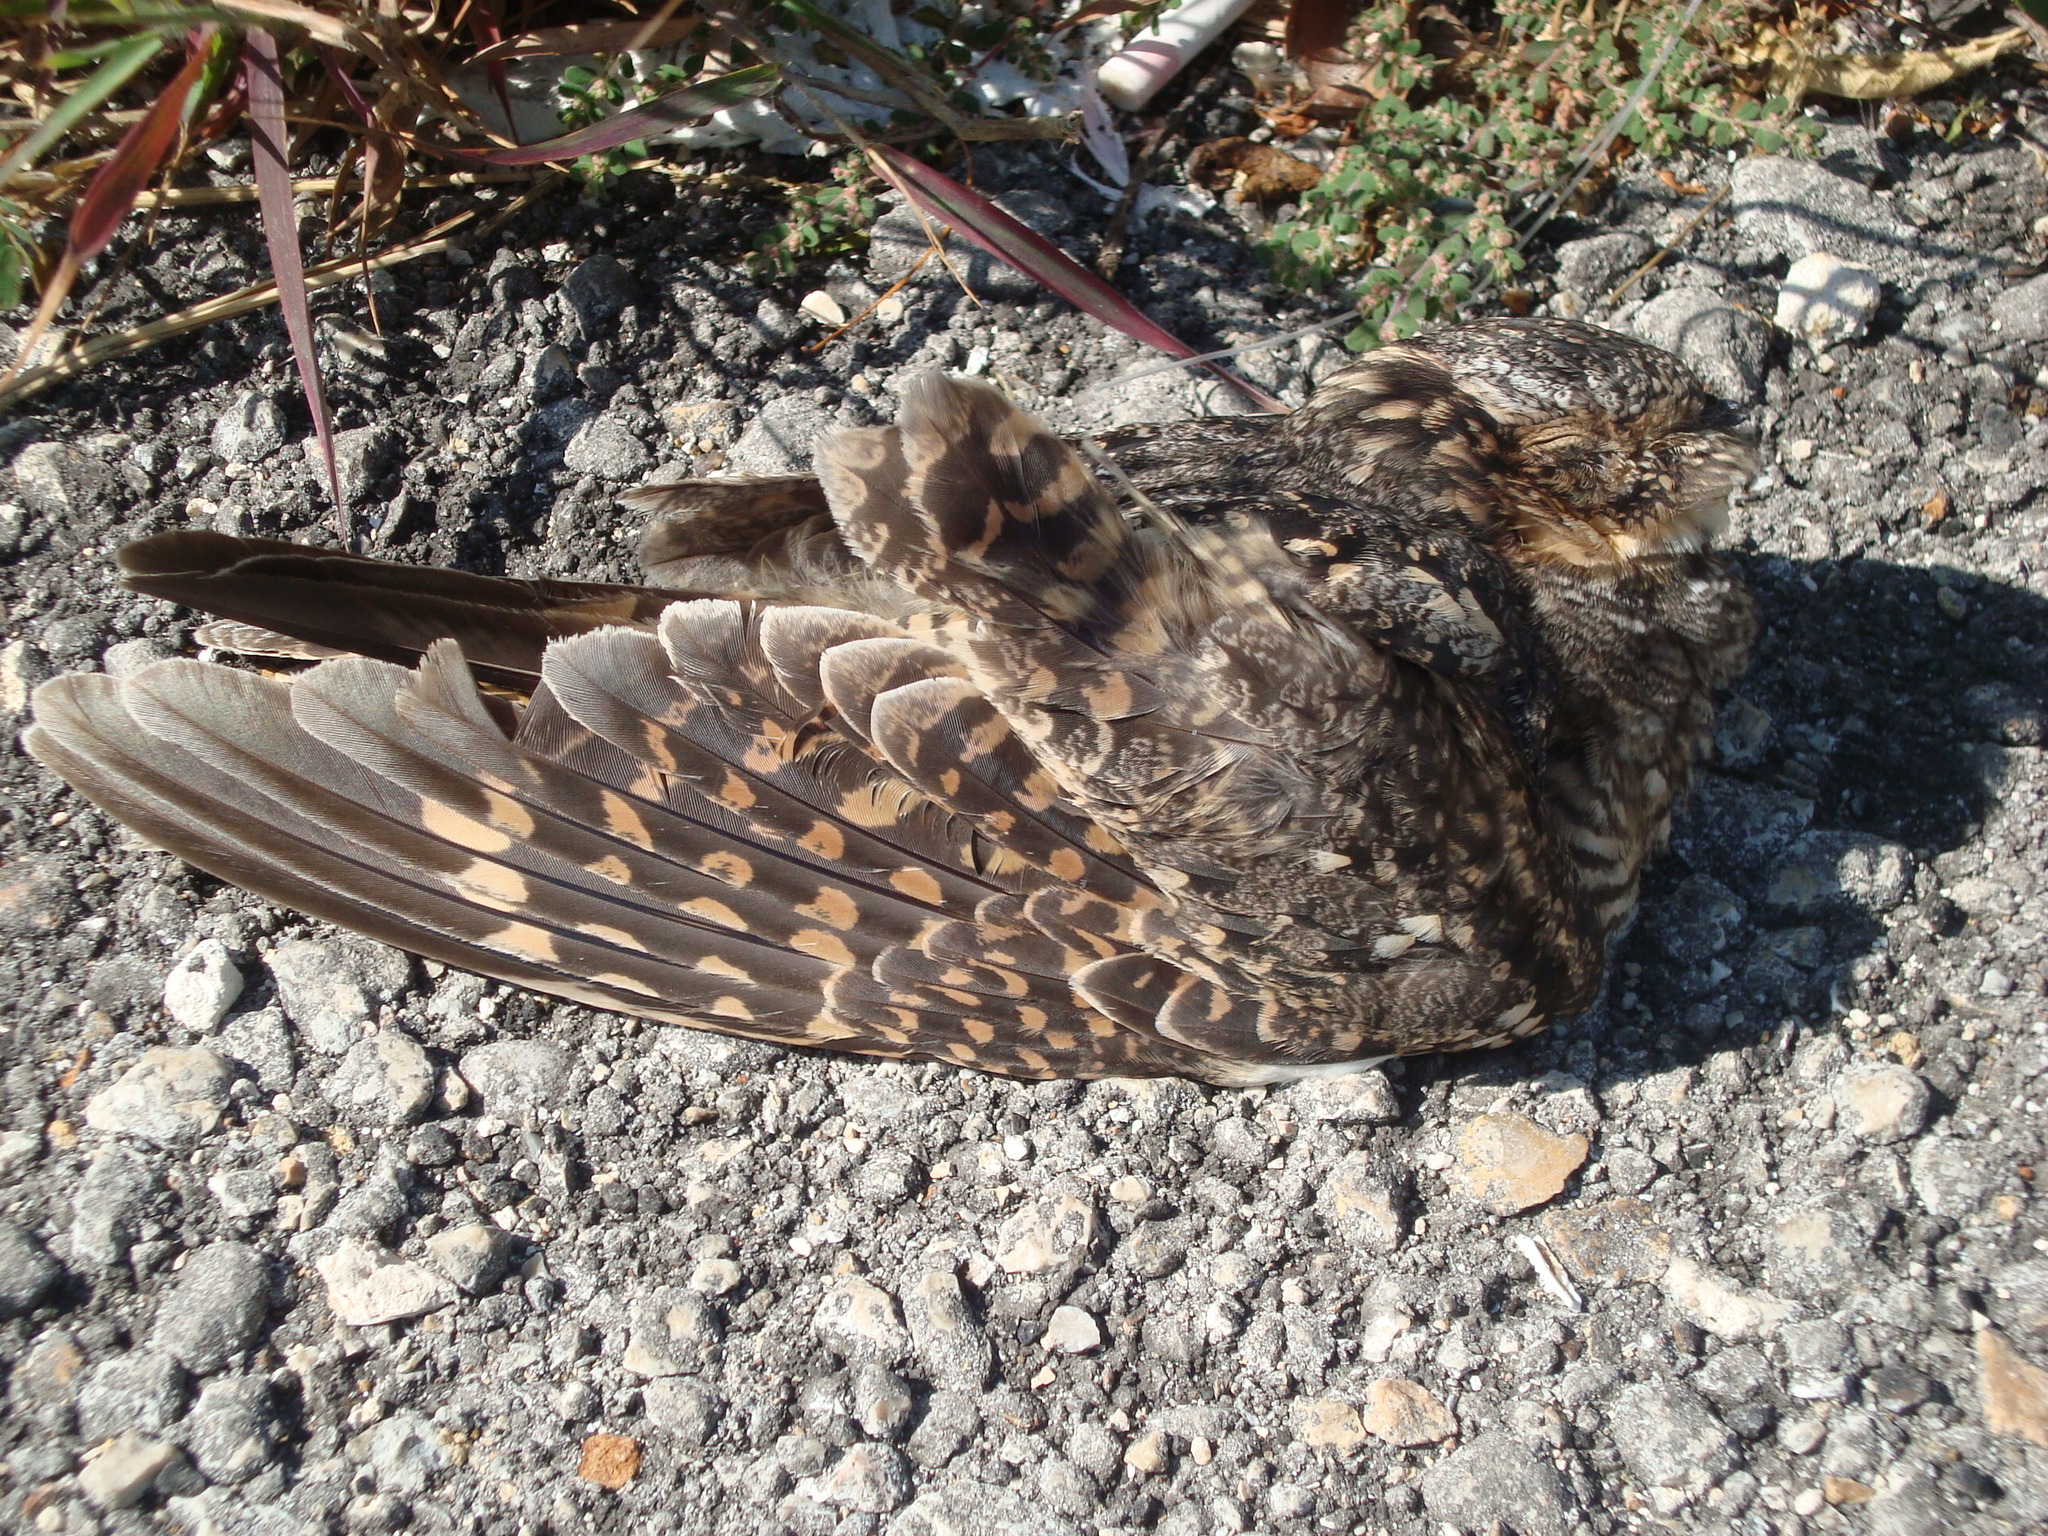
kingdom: Animalia
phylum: Chordata
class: Aves
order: Caprimulgiformes
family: Caprimulgidae
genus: Chordeiles
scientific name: Chordeiles acutipennis
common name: Lesser nighthawk
